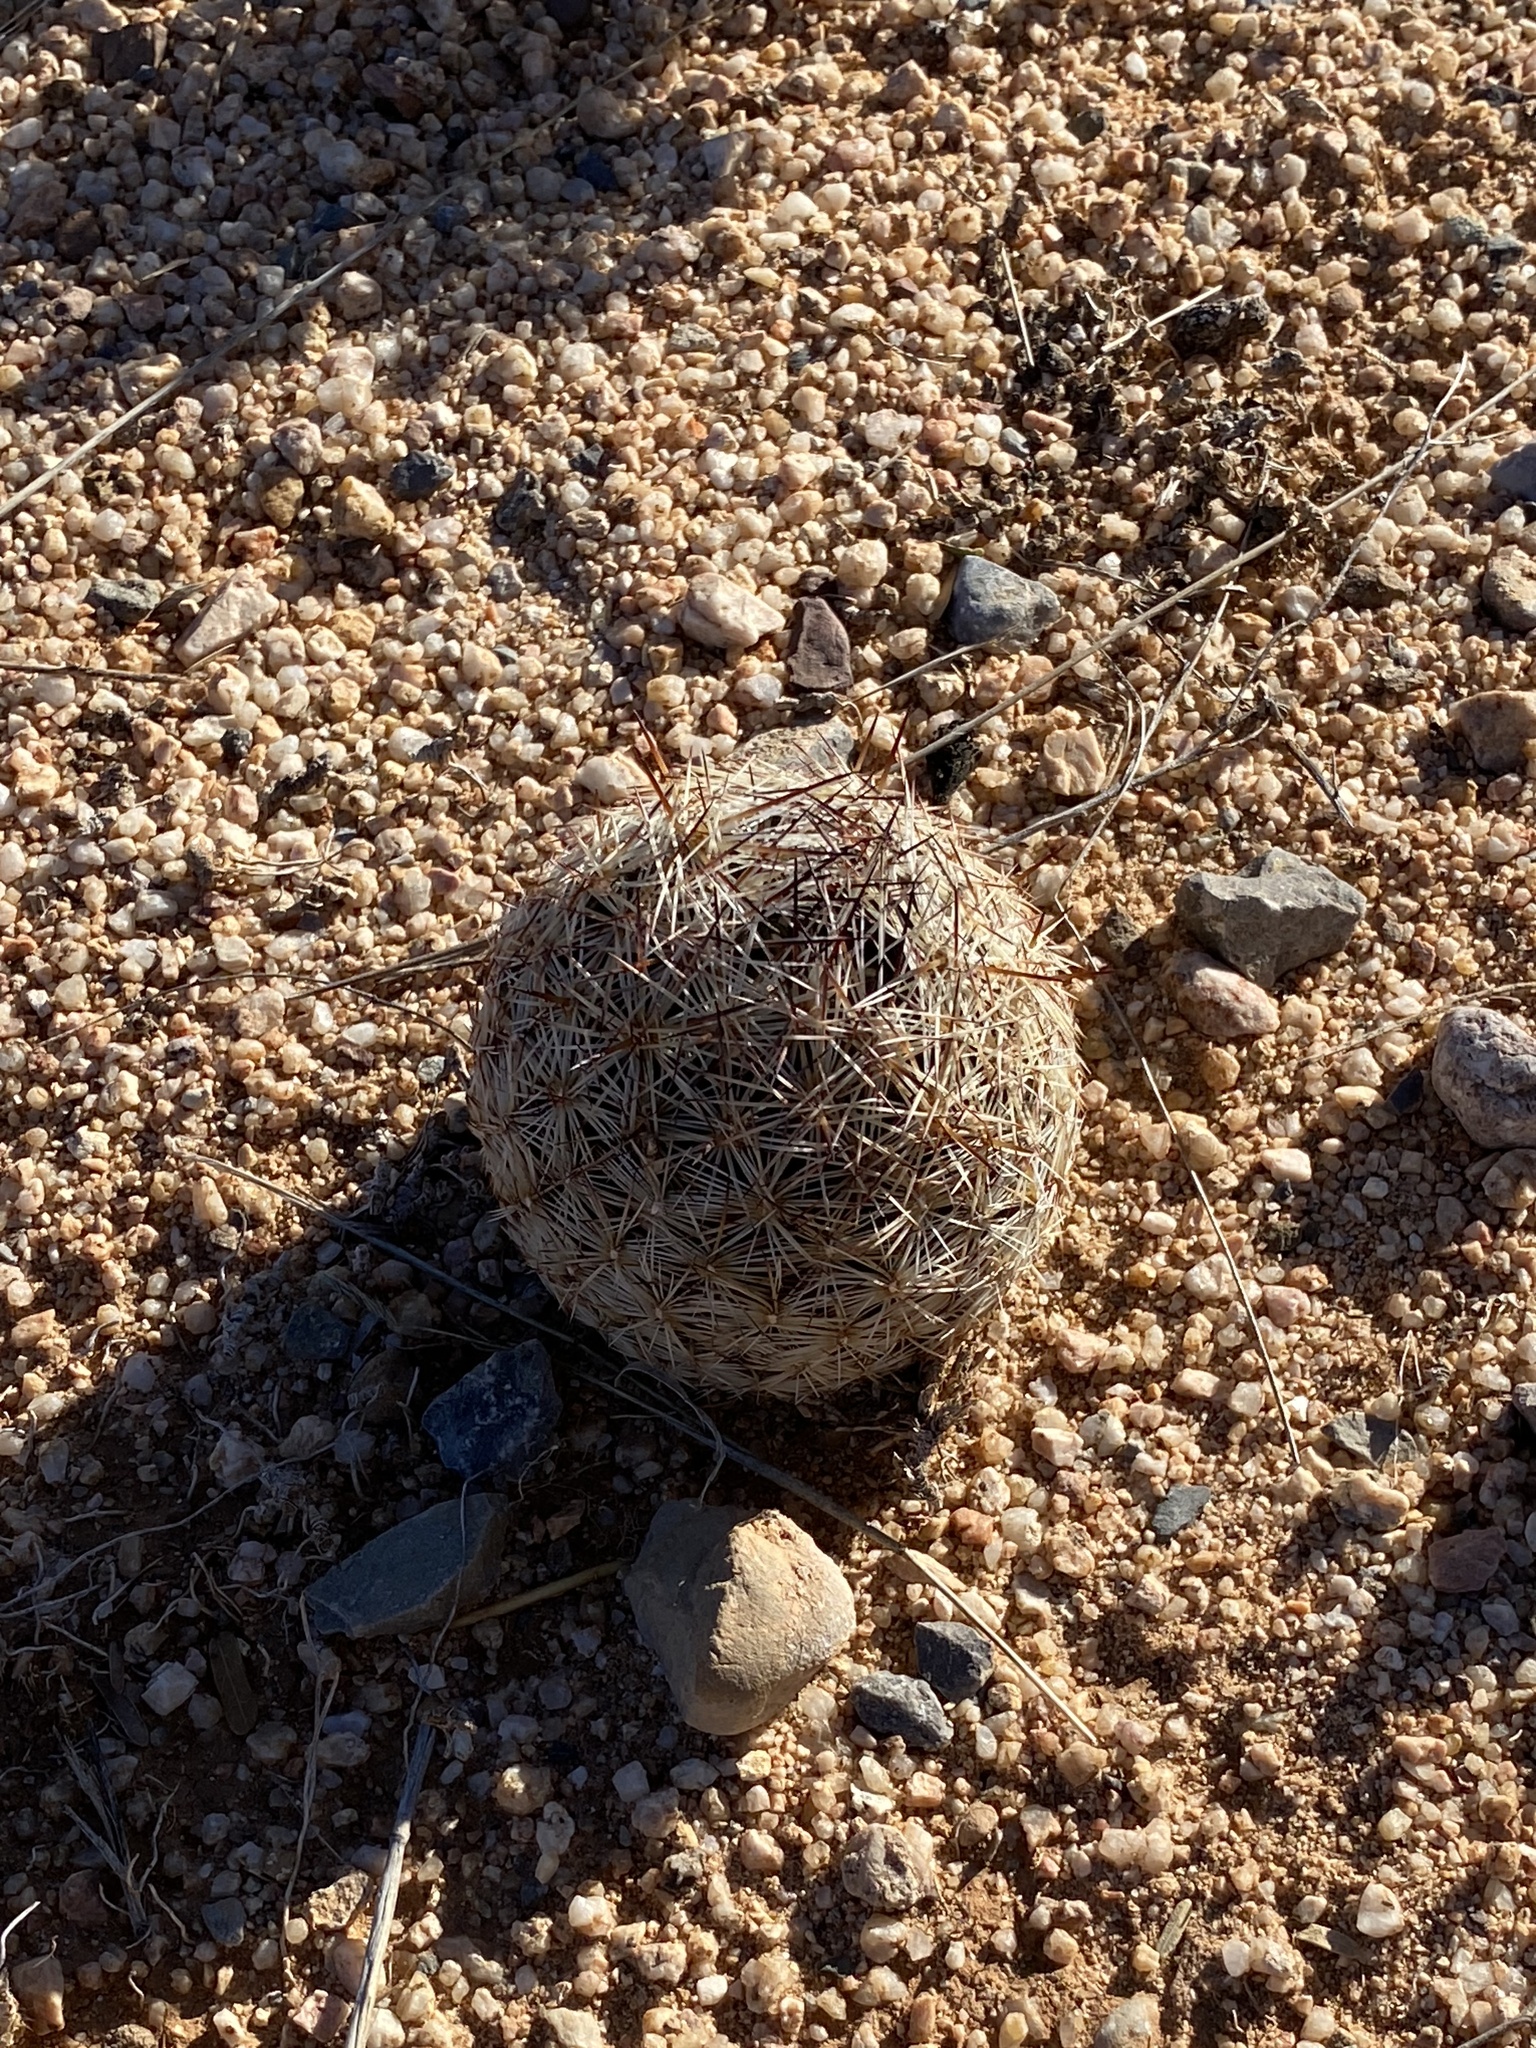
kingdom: Plantae
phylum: Tracheophyta
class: Magnoliopsida
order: Caryophyllales
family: Cactaceae
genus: Pelecyphora
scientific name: Pelecyphora vivipara
